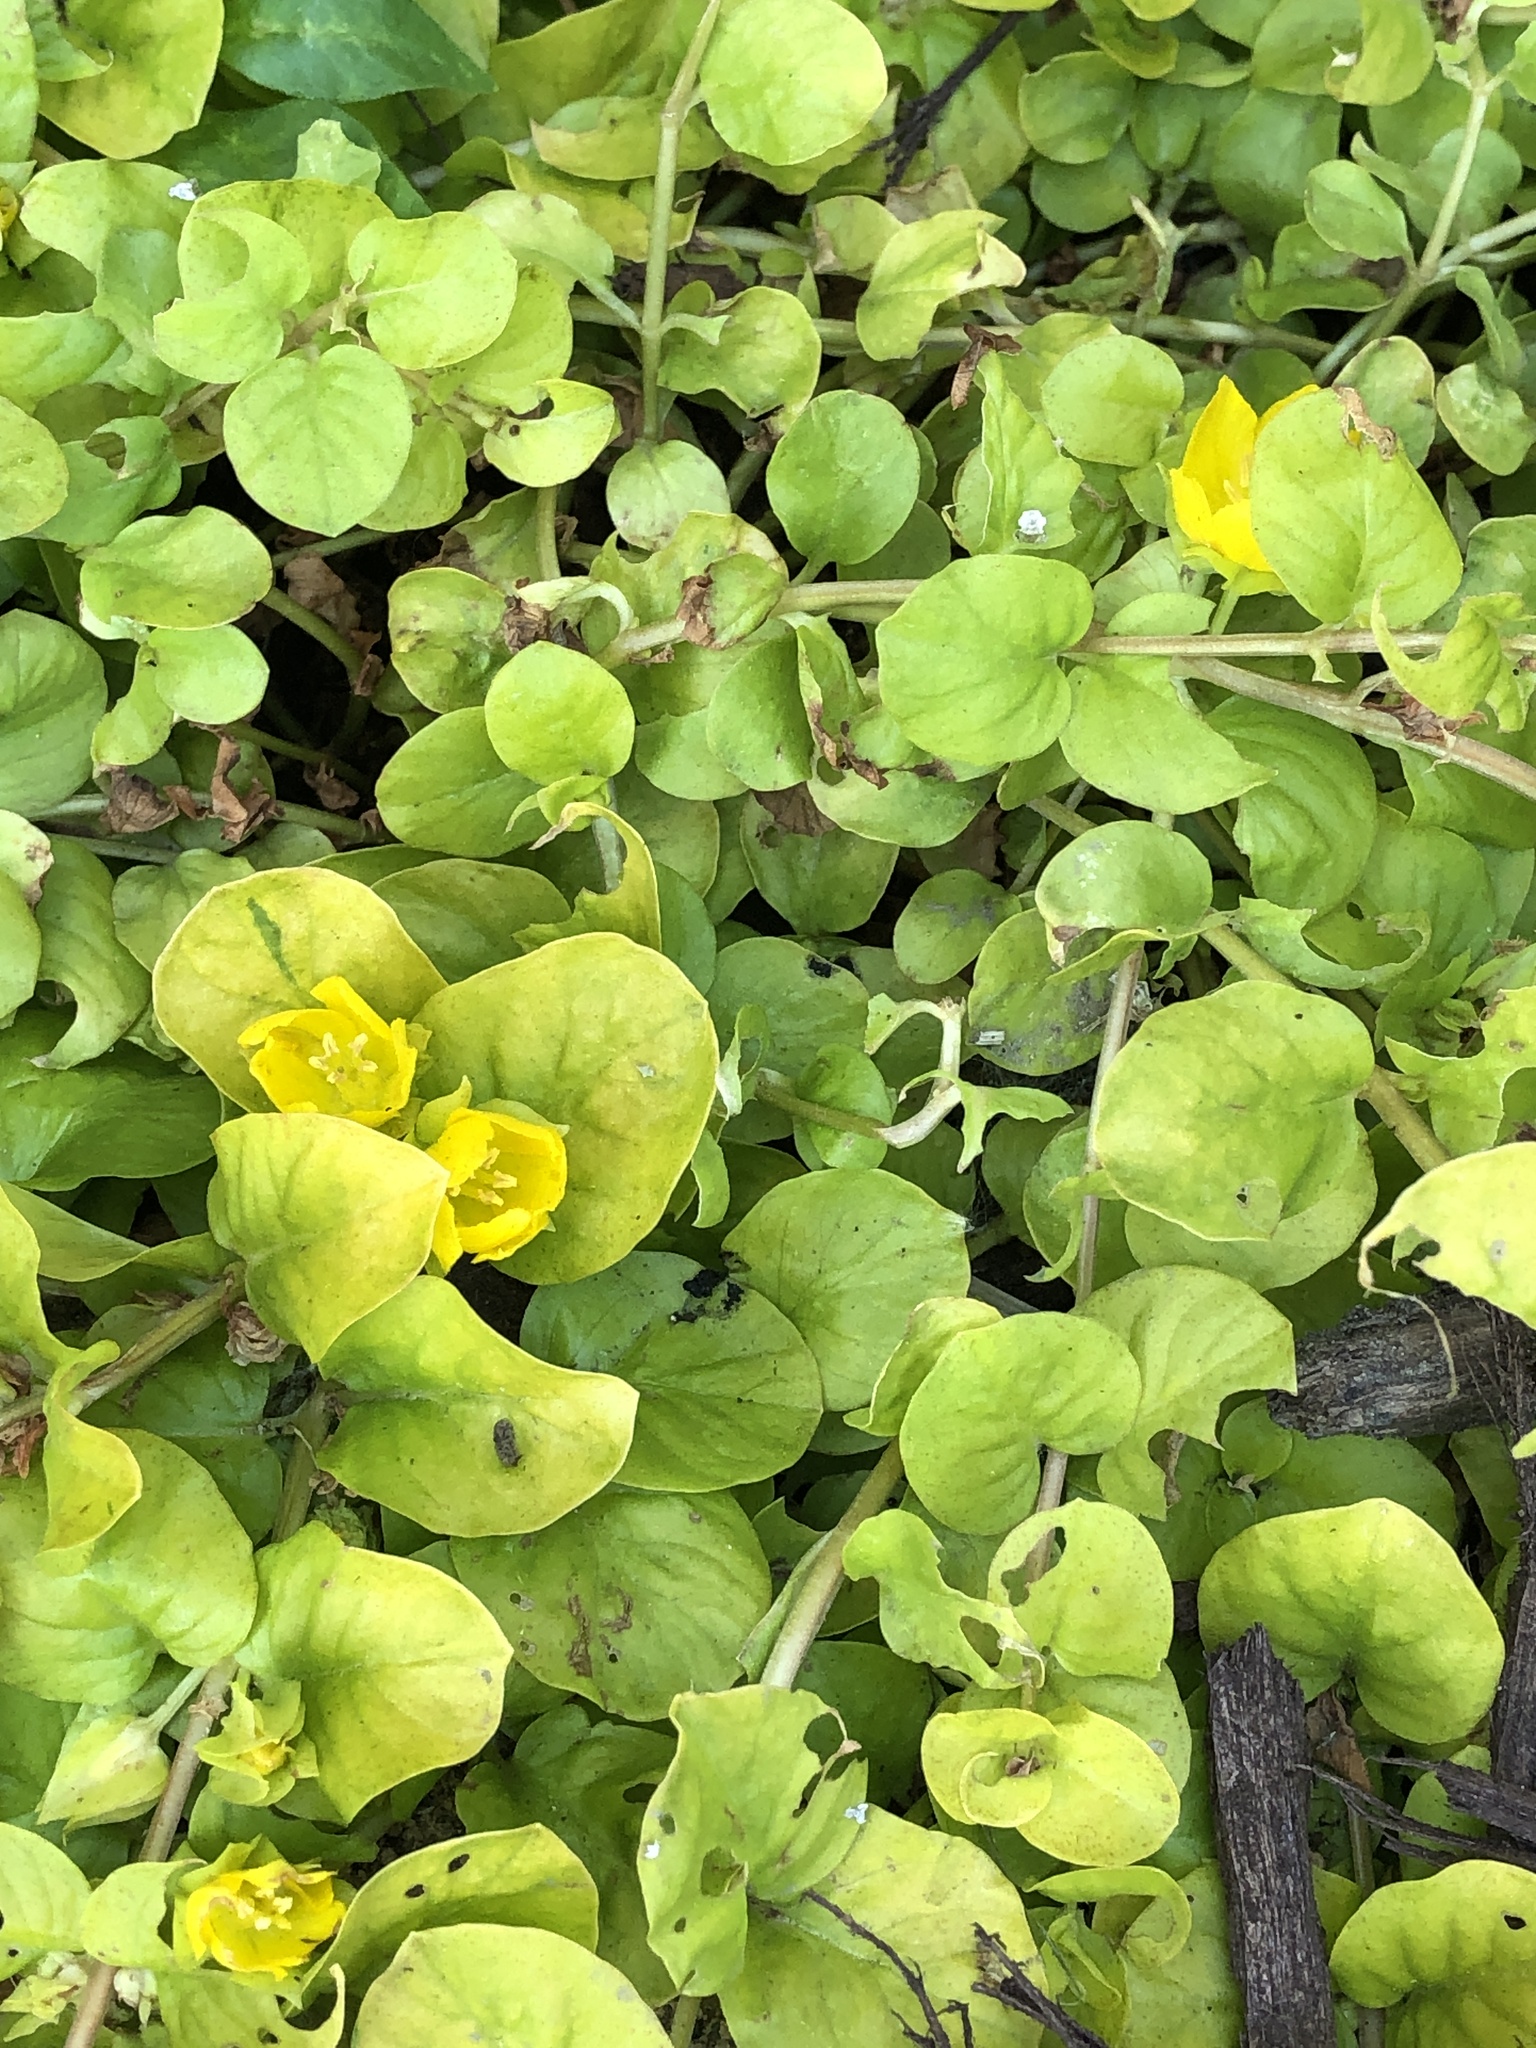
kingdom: Plantae
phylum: Tracheophyta
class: Magnoliopsida
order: Ericales
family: Primulaceae
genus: Lysimachia
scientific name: Lysimachia nummularia
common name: Moneywort
